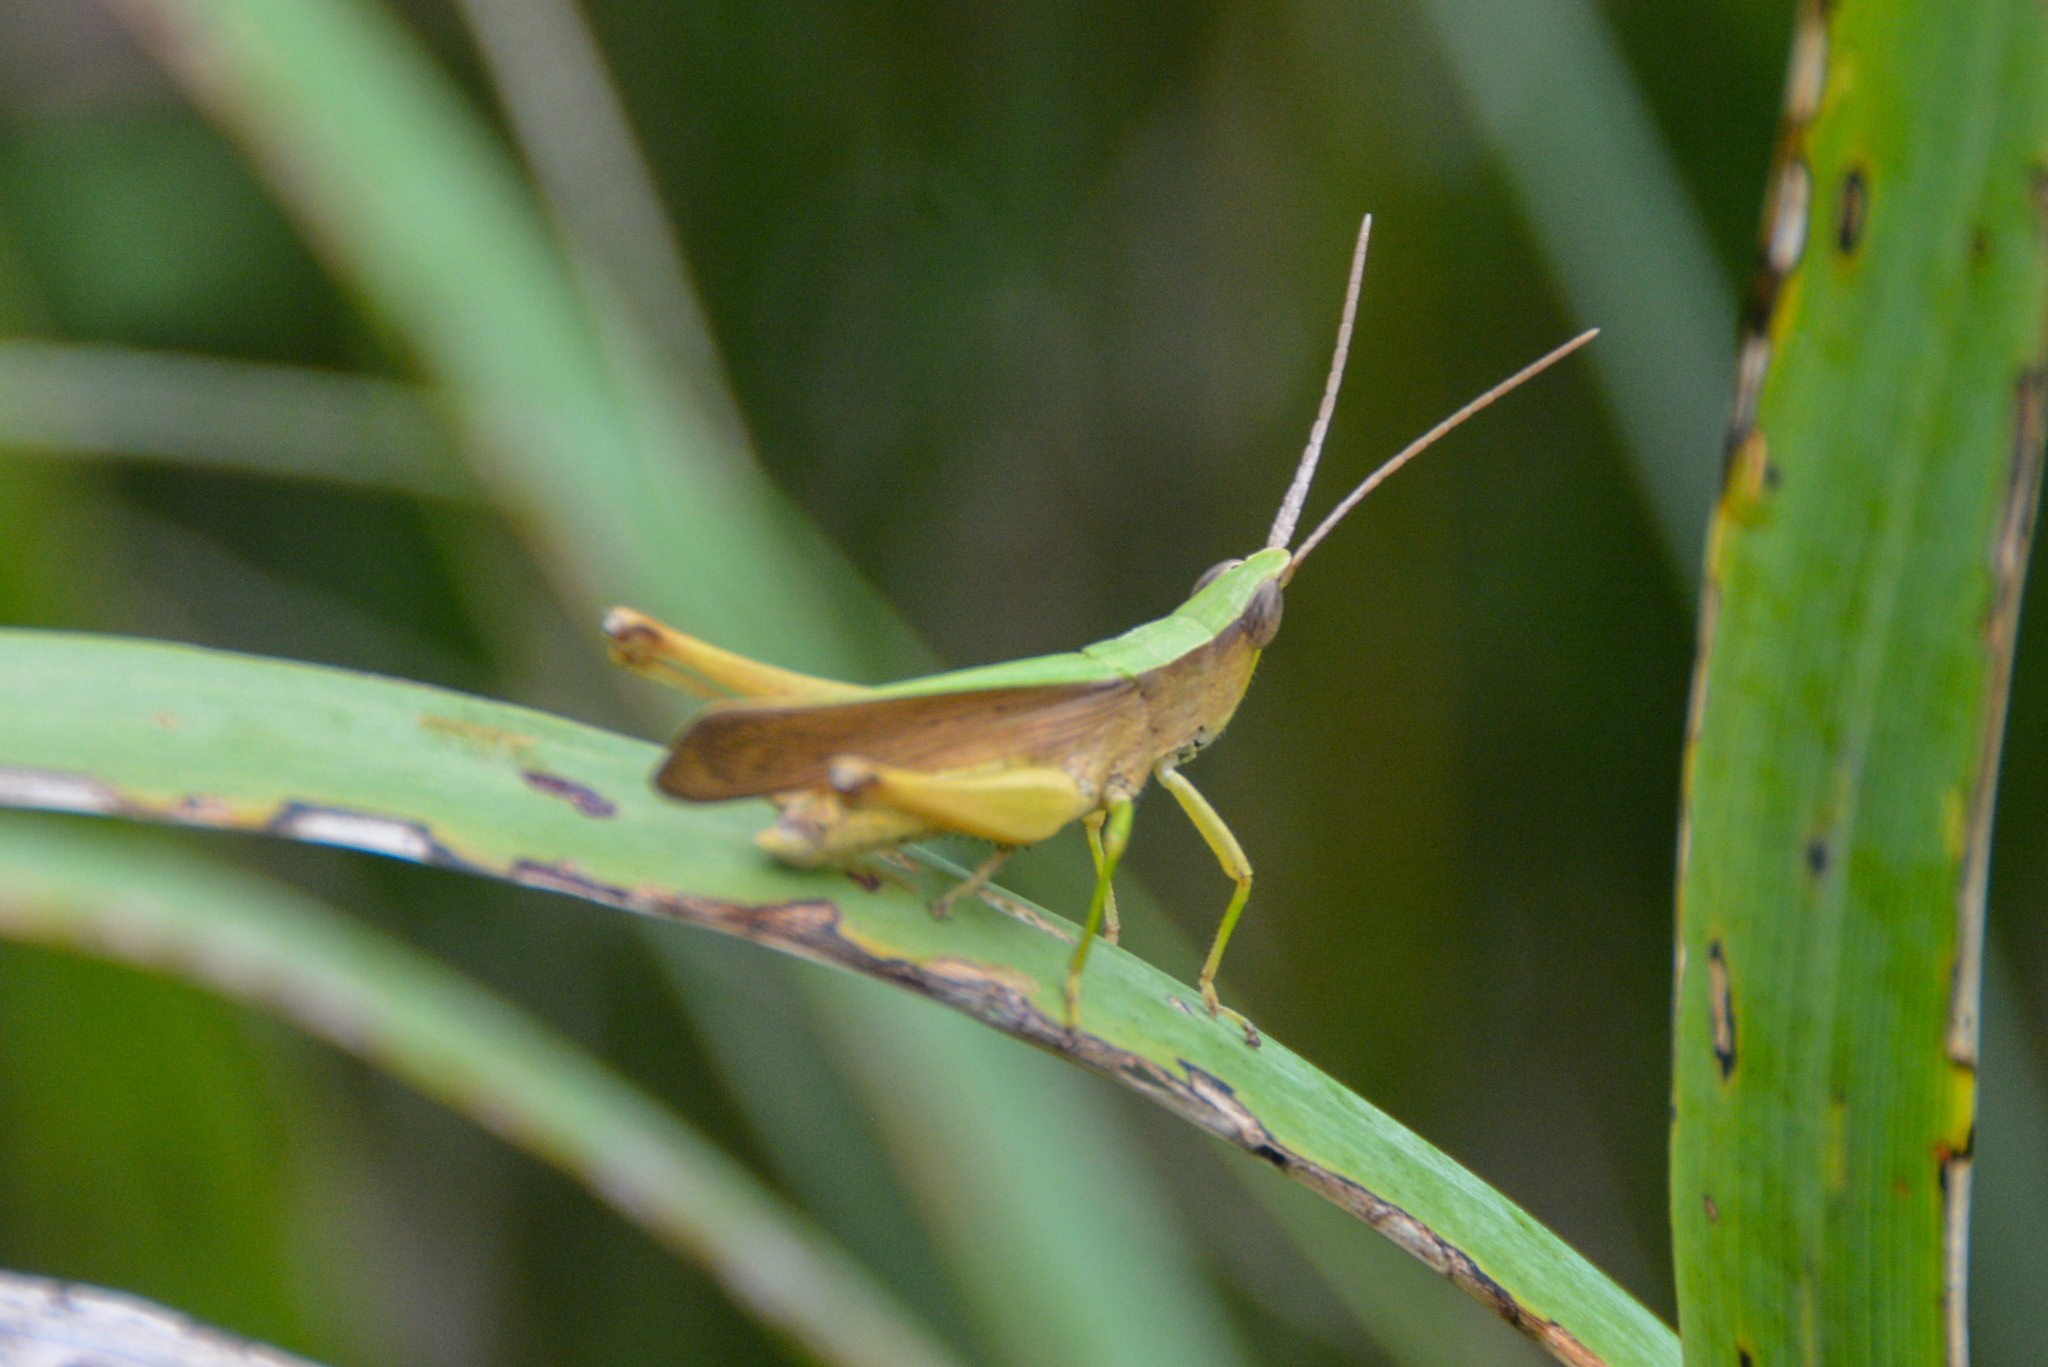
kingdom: Animalia
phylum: Arthropoda
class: Insecta
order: Orthoptera
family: Acrididae
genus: Metaleptea
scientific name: Metaleptea brevicornis
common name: Clipped-wing grasshopper
